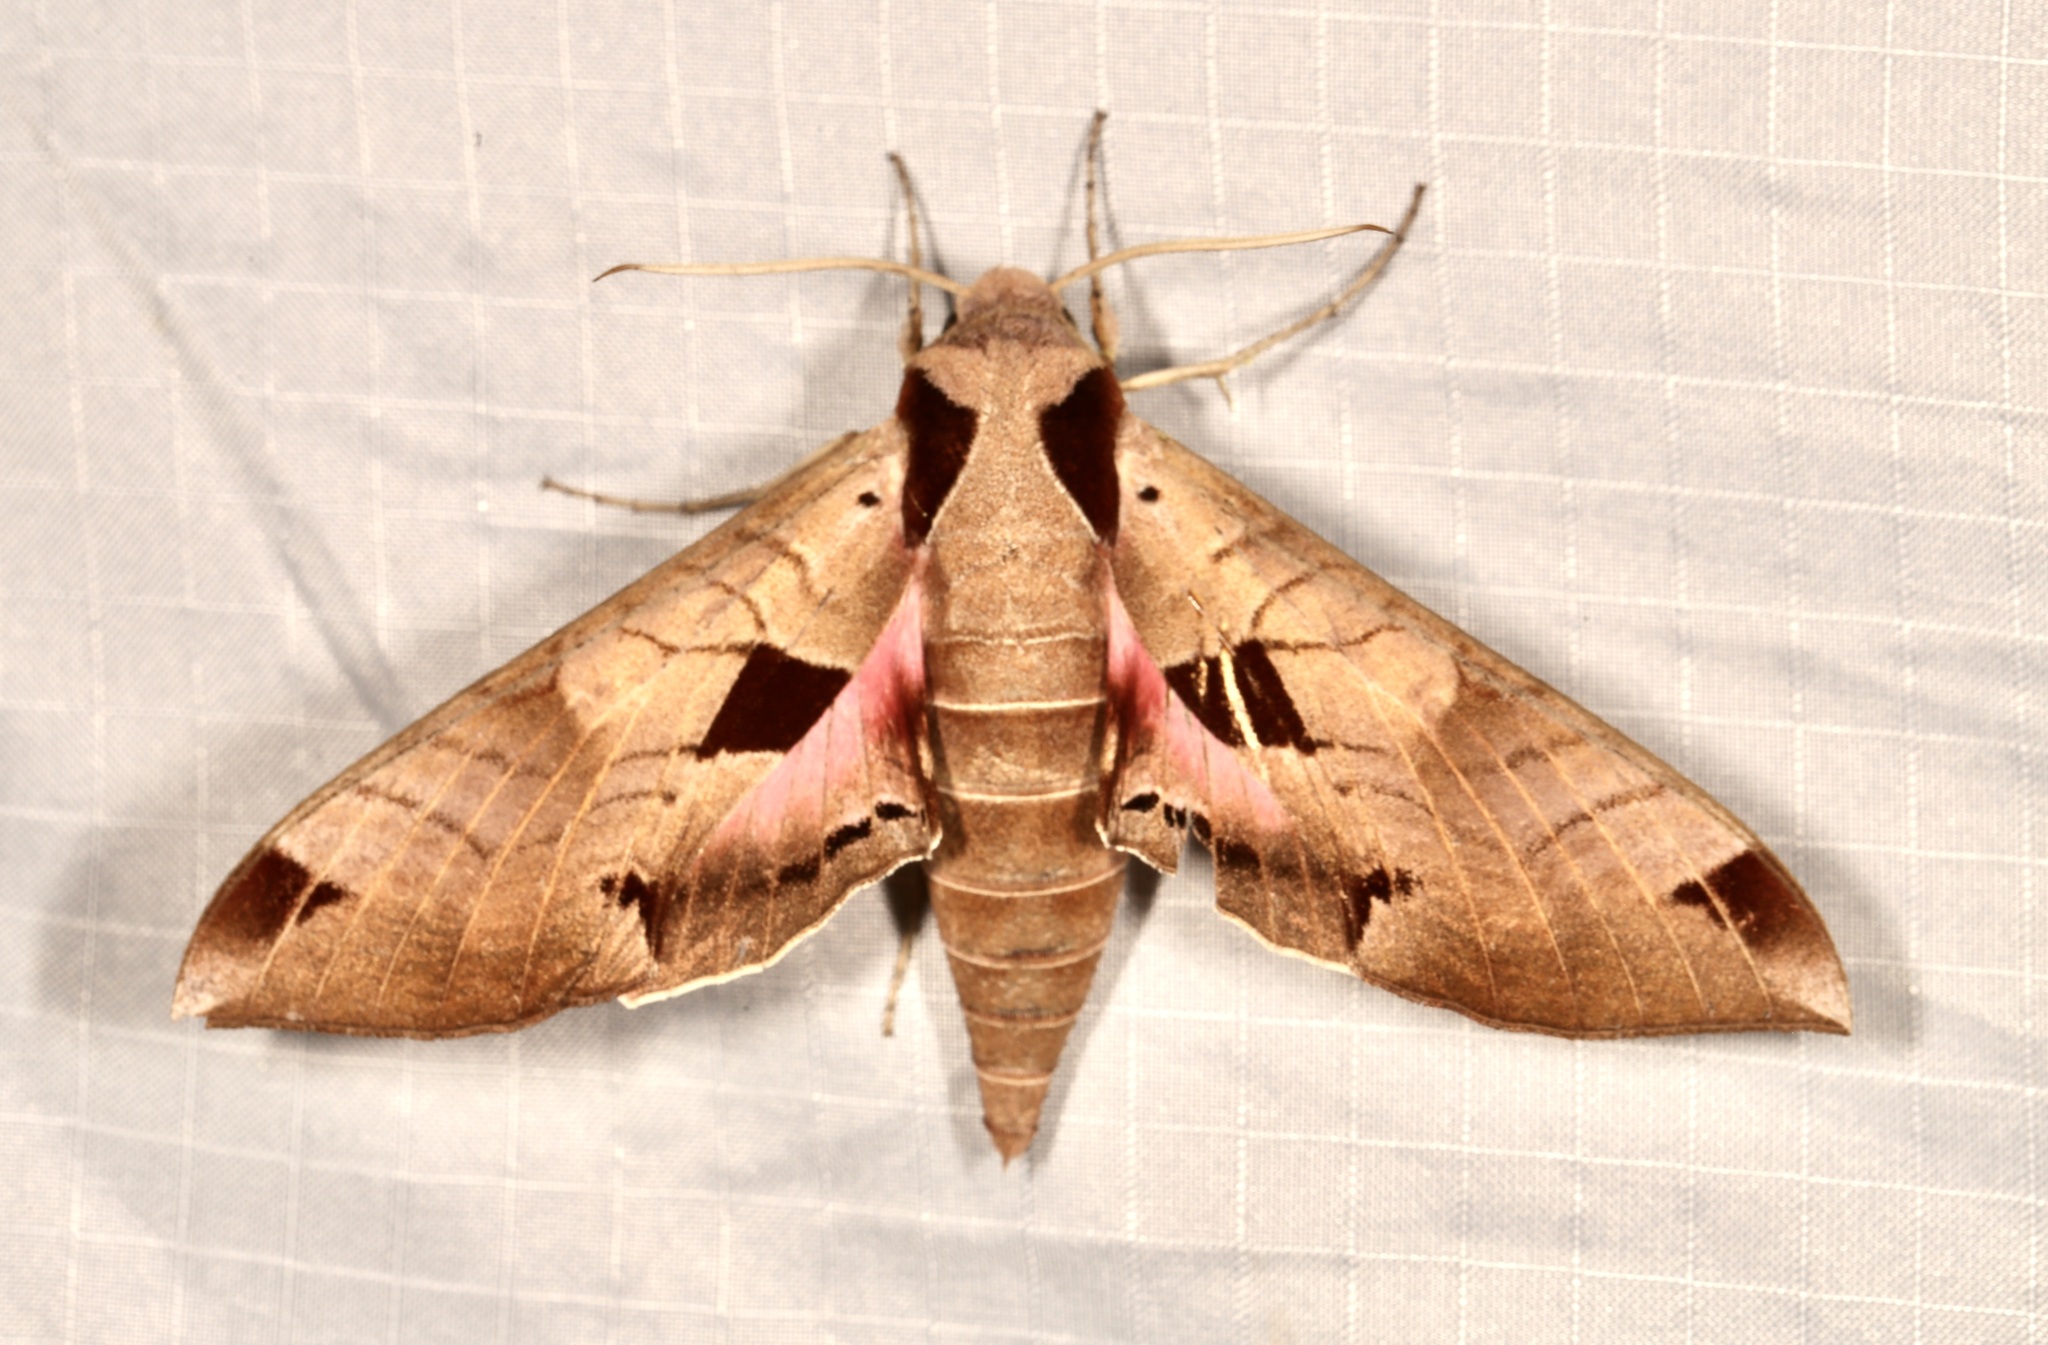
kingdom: Animalia
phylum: Arthropoda
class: Insecta
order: Lepidoptera
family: Sphingidae
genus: Eumorpha
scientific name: Eumorpha achemon
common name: Achemon sphinx
